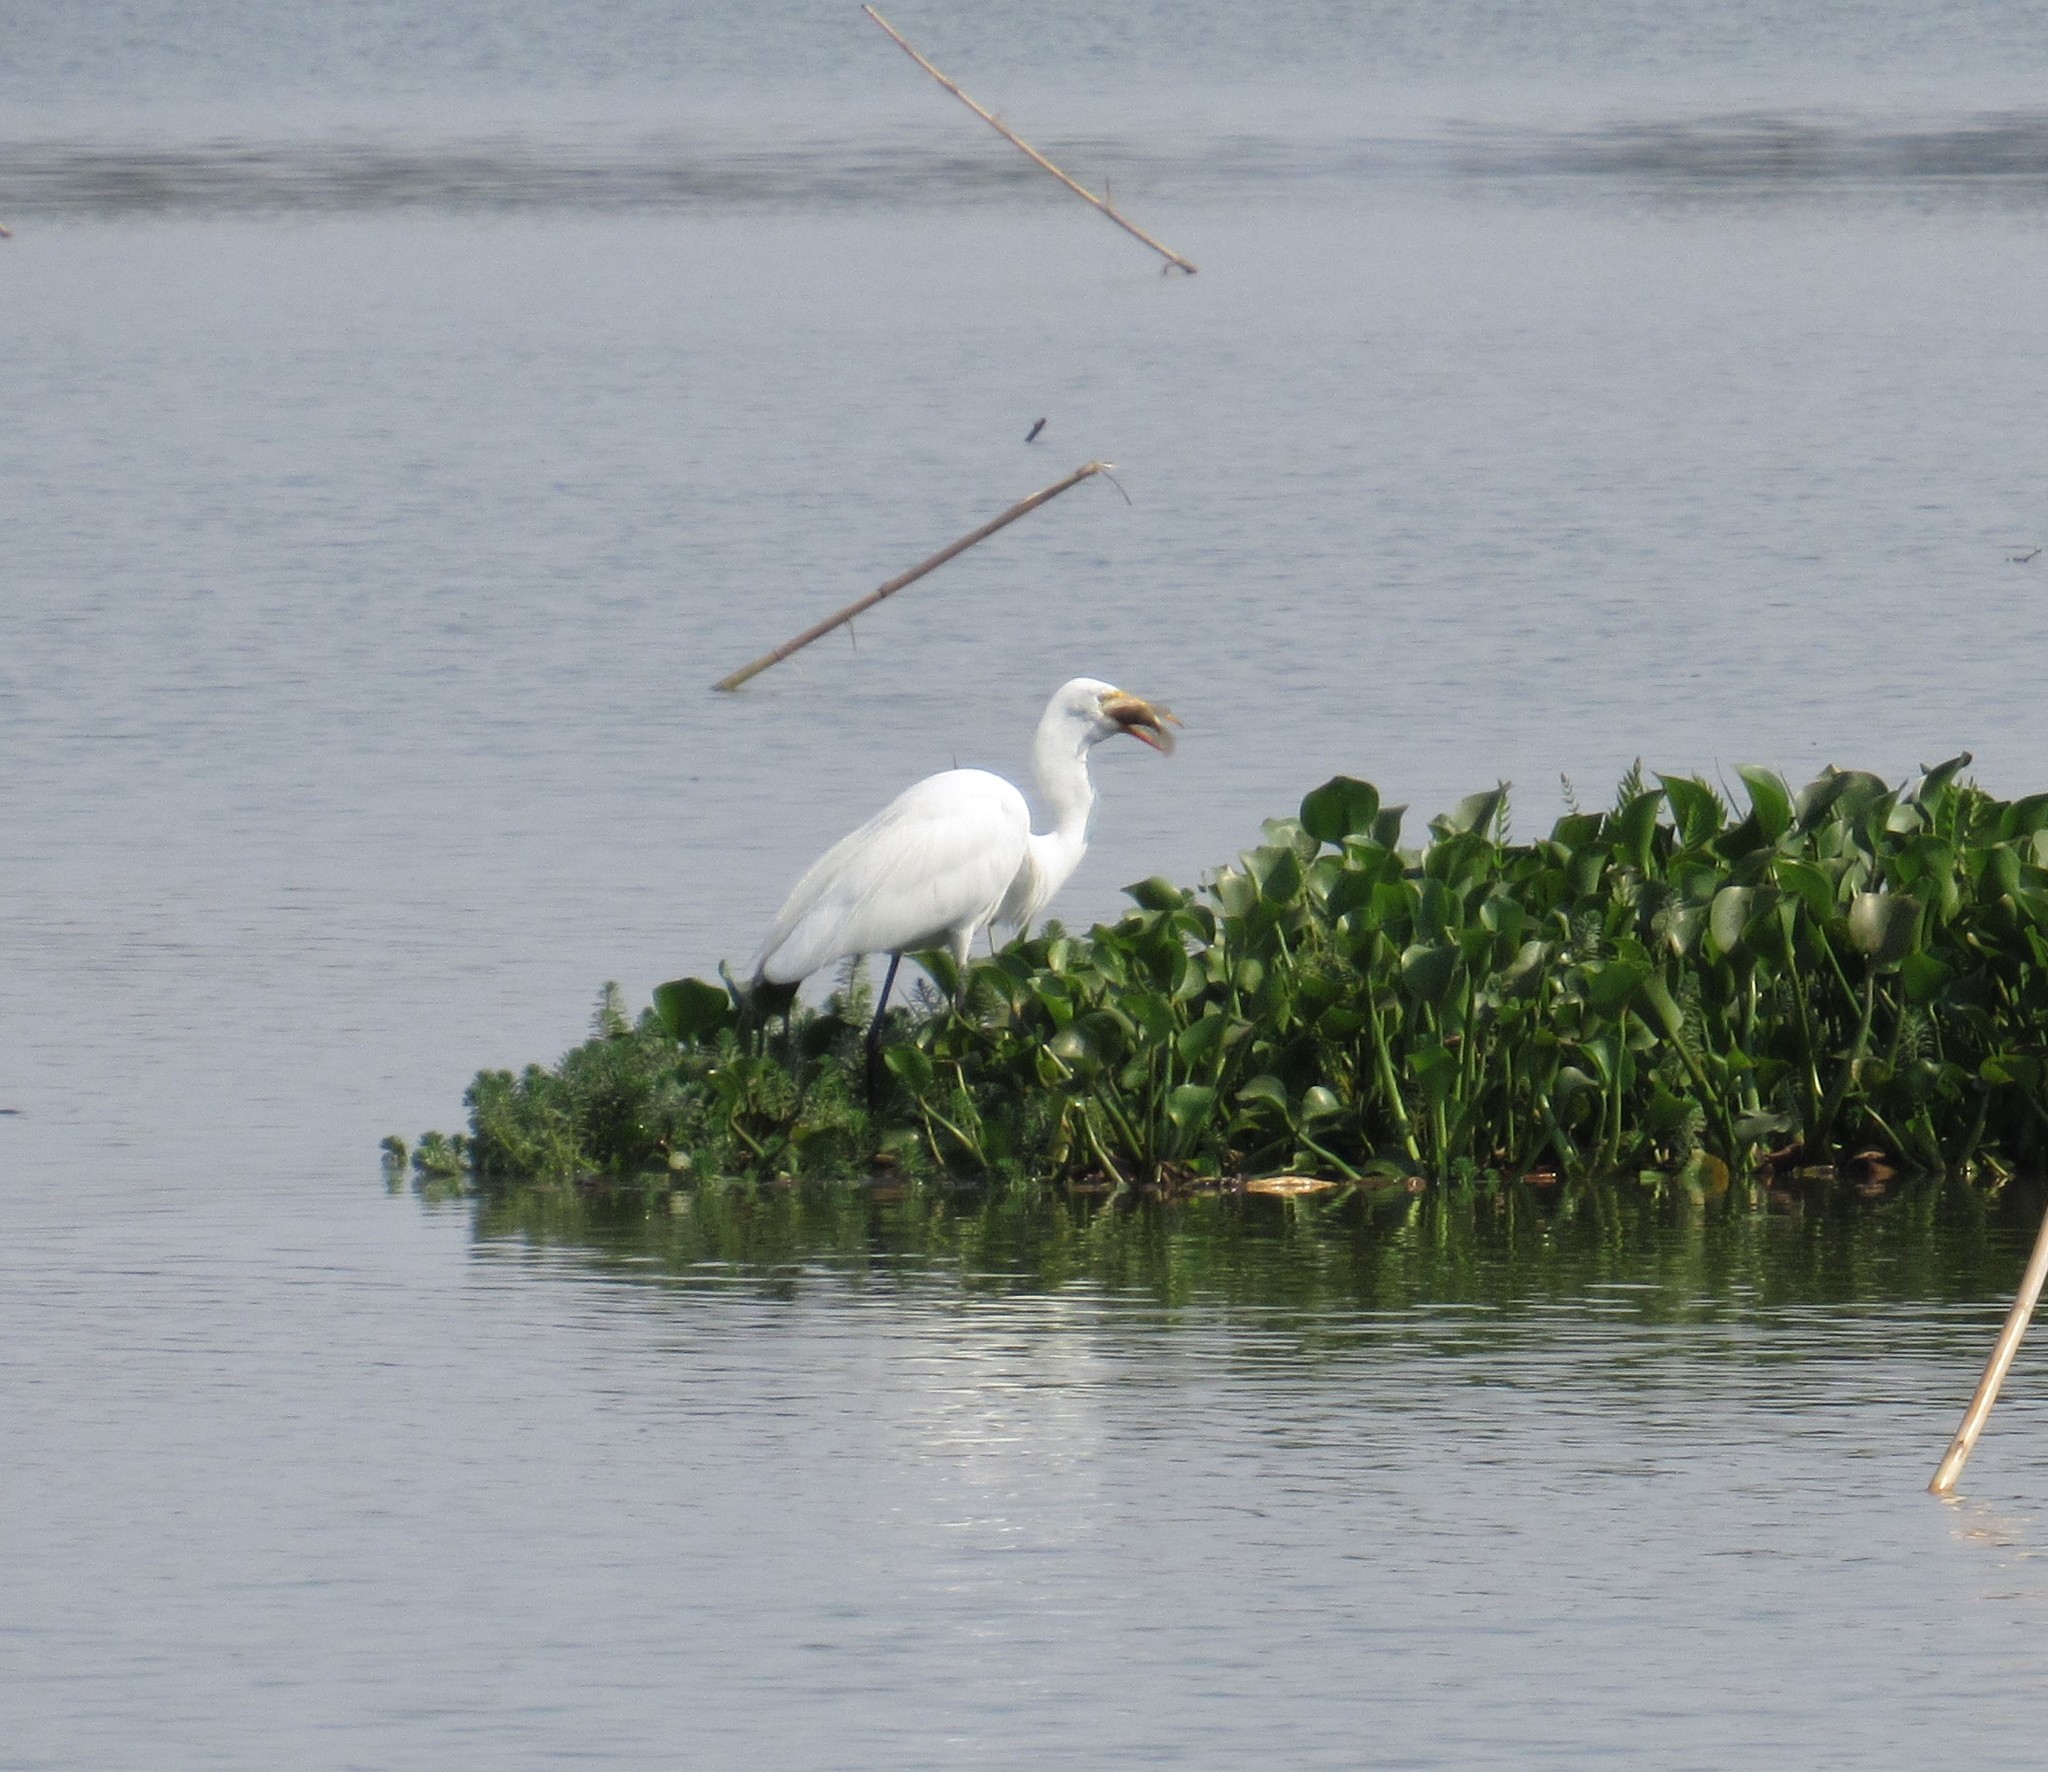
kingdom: Animalia
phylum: Chordata
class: Aves
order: Pelecaniformes
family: Ardeidae
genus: Ardea
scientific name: Ardea alba
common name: Great egret
